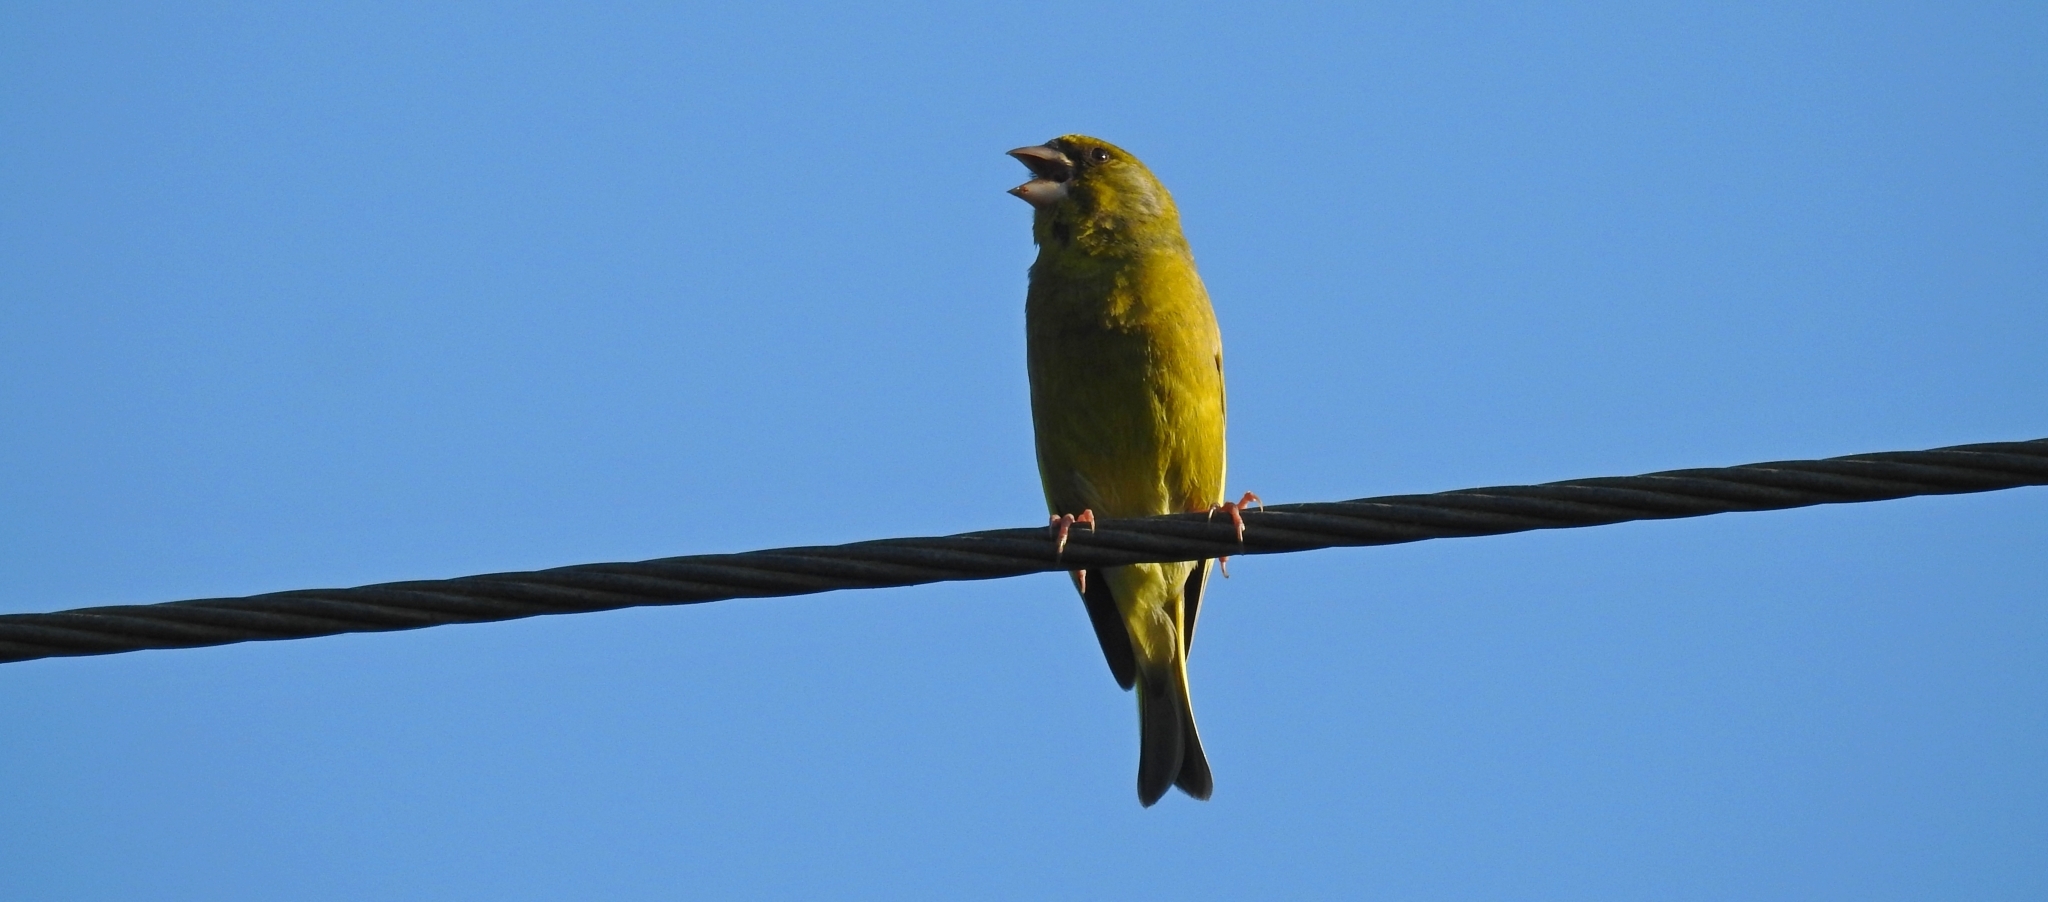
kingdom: Plantae
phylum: Tracheophyta
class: Liliopsida
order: Poales
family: Poaceae
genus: Chloris
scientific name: Chloris chloris
